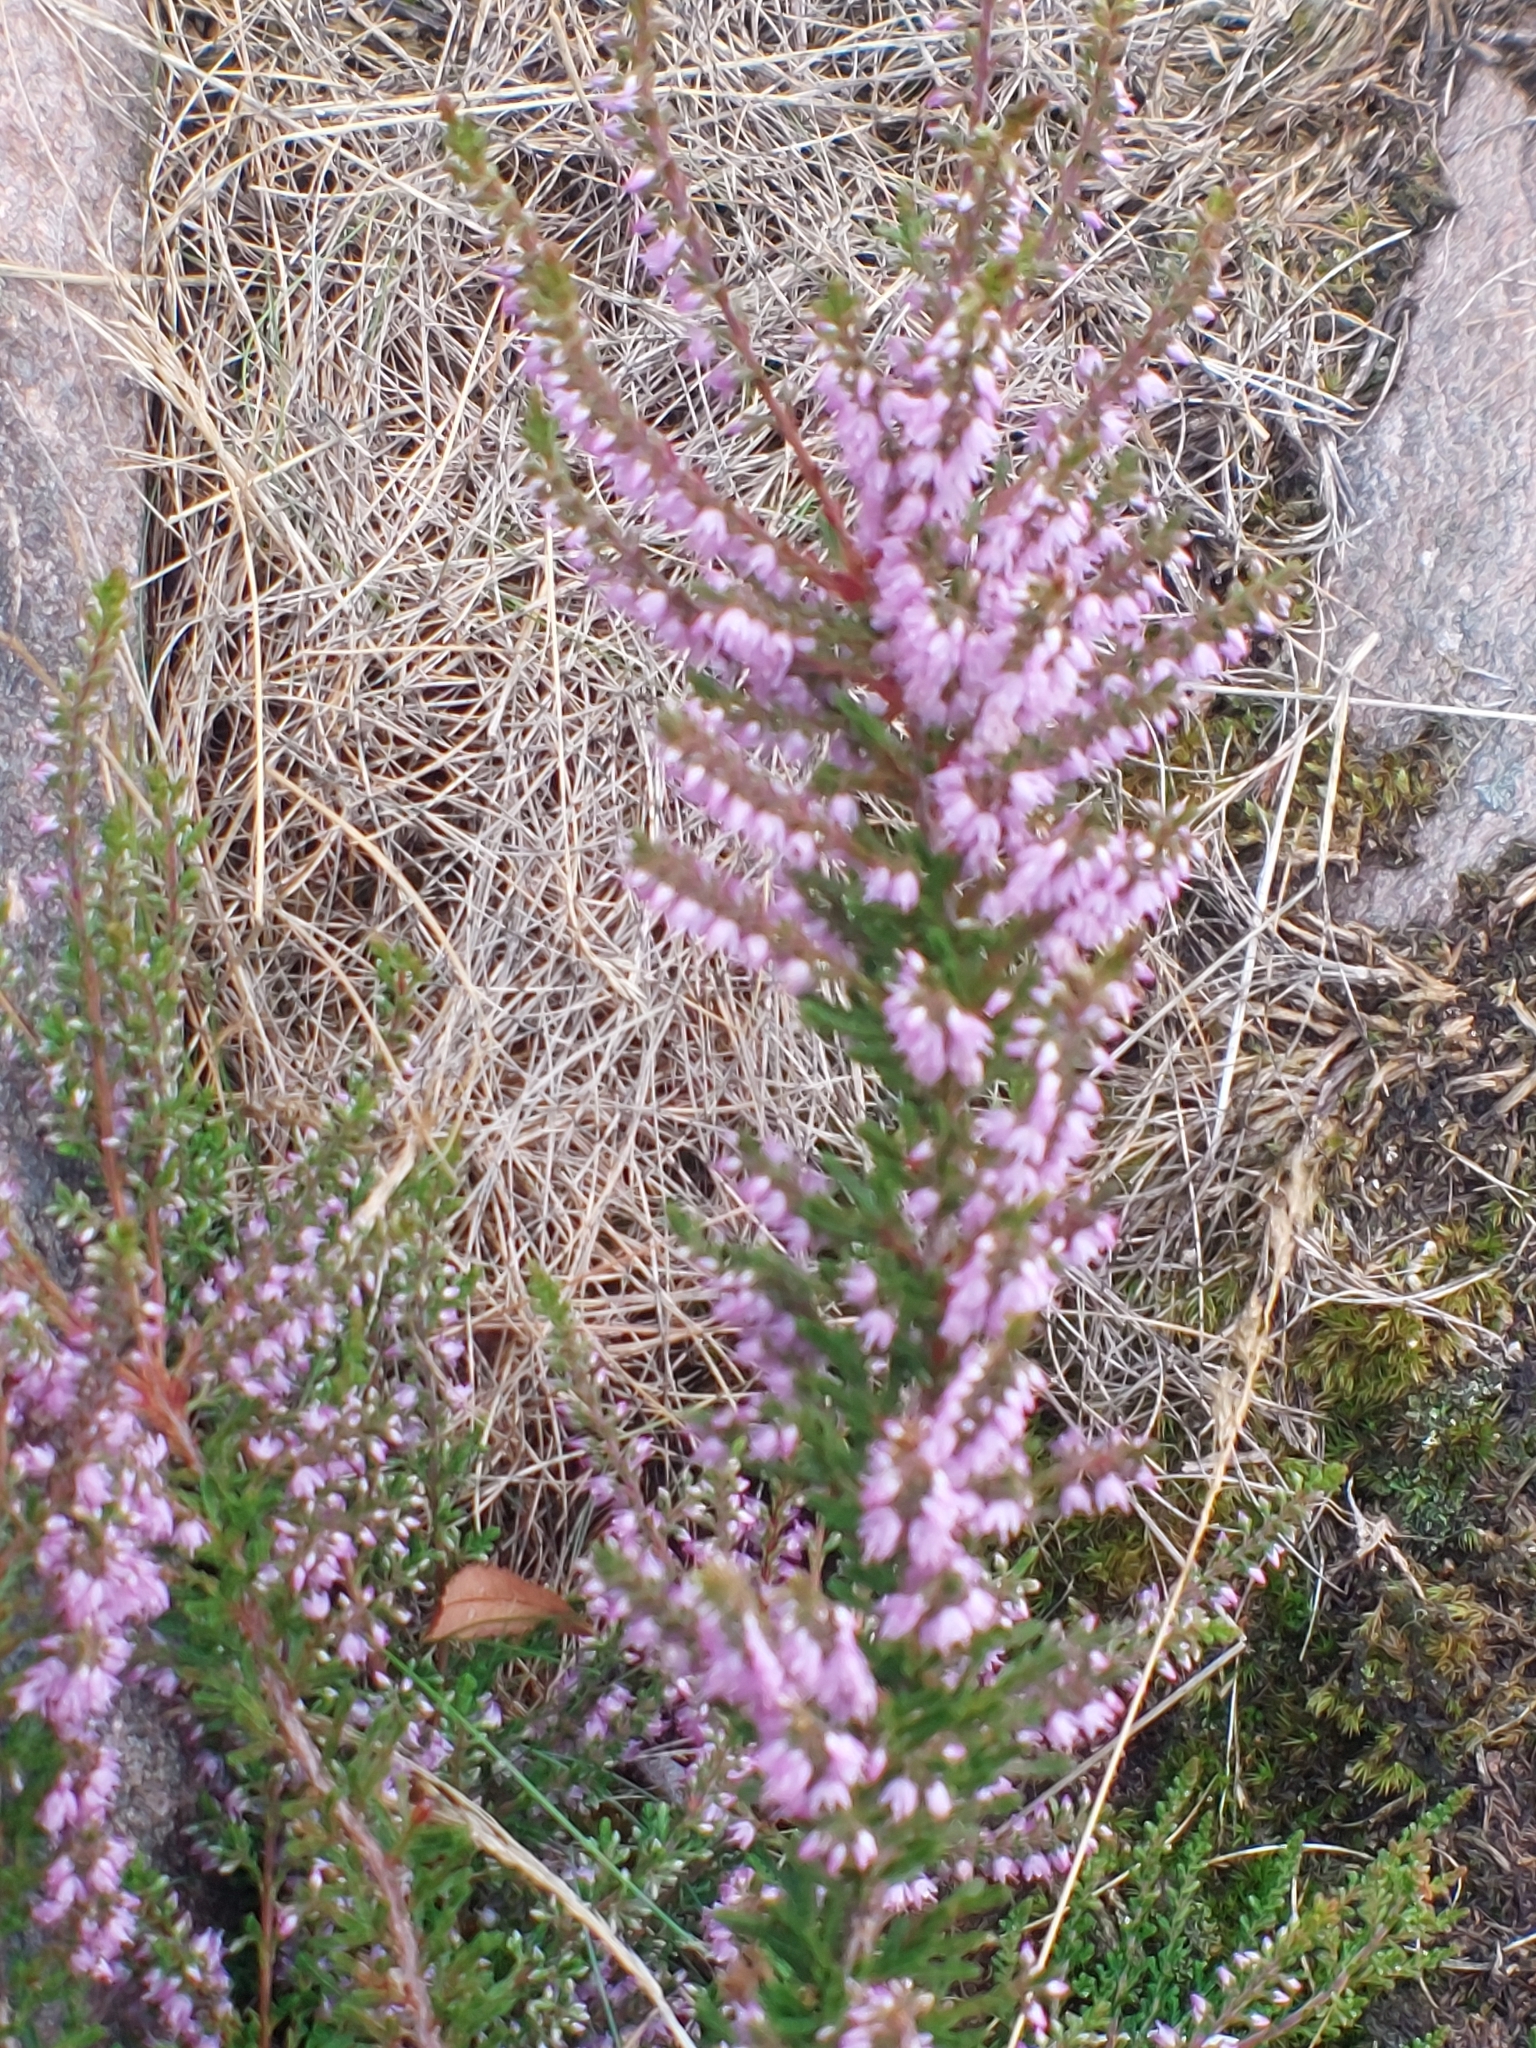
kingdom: Plantae
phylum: Tracheophyta
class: Magnoliopsida
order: Ericales
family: Ericaceae
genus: Calluna
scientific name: Calluna vulgaris
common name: Heather
